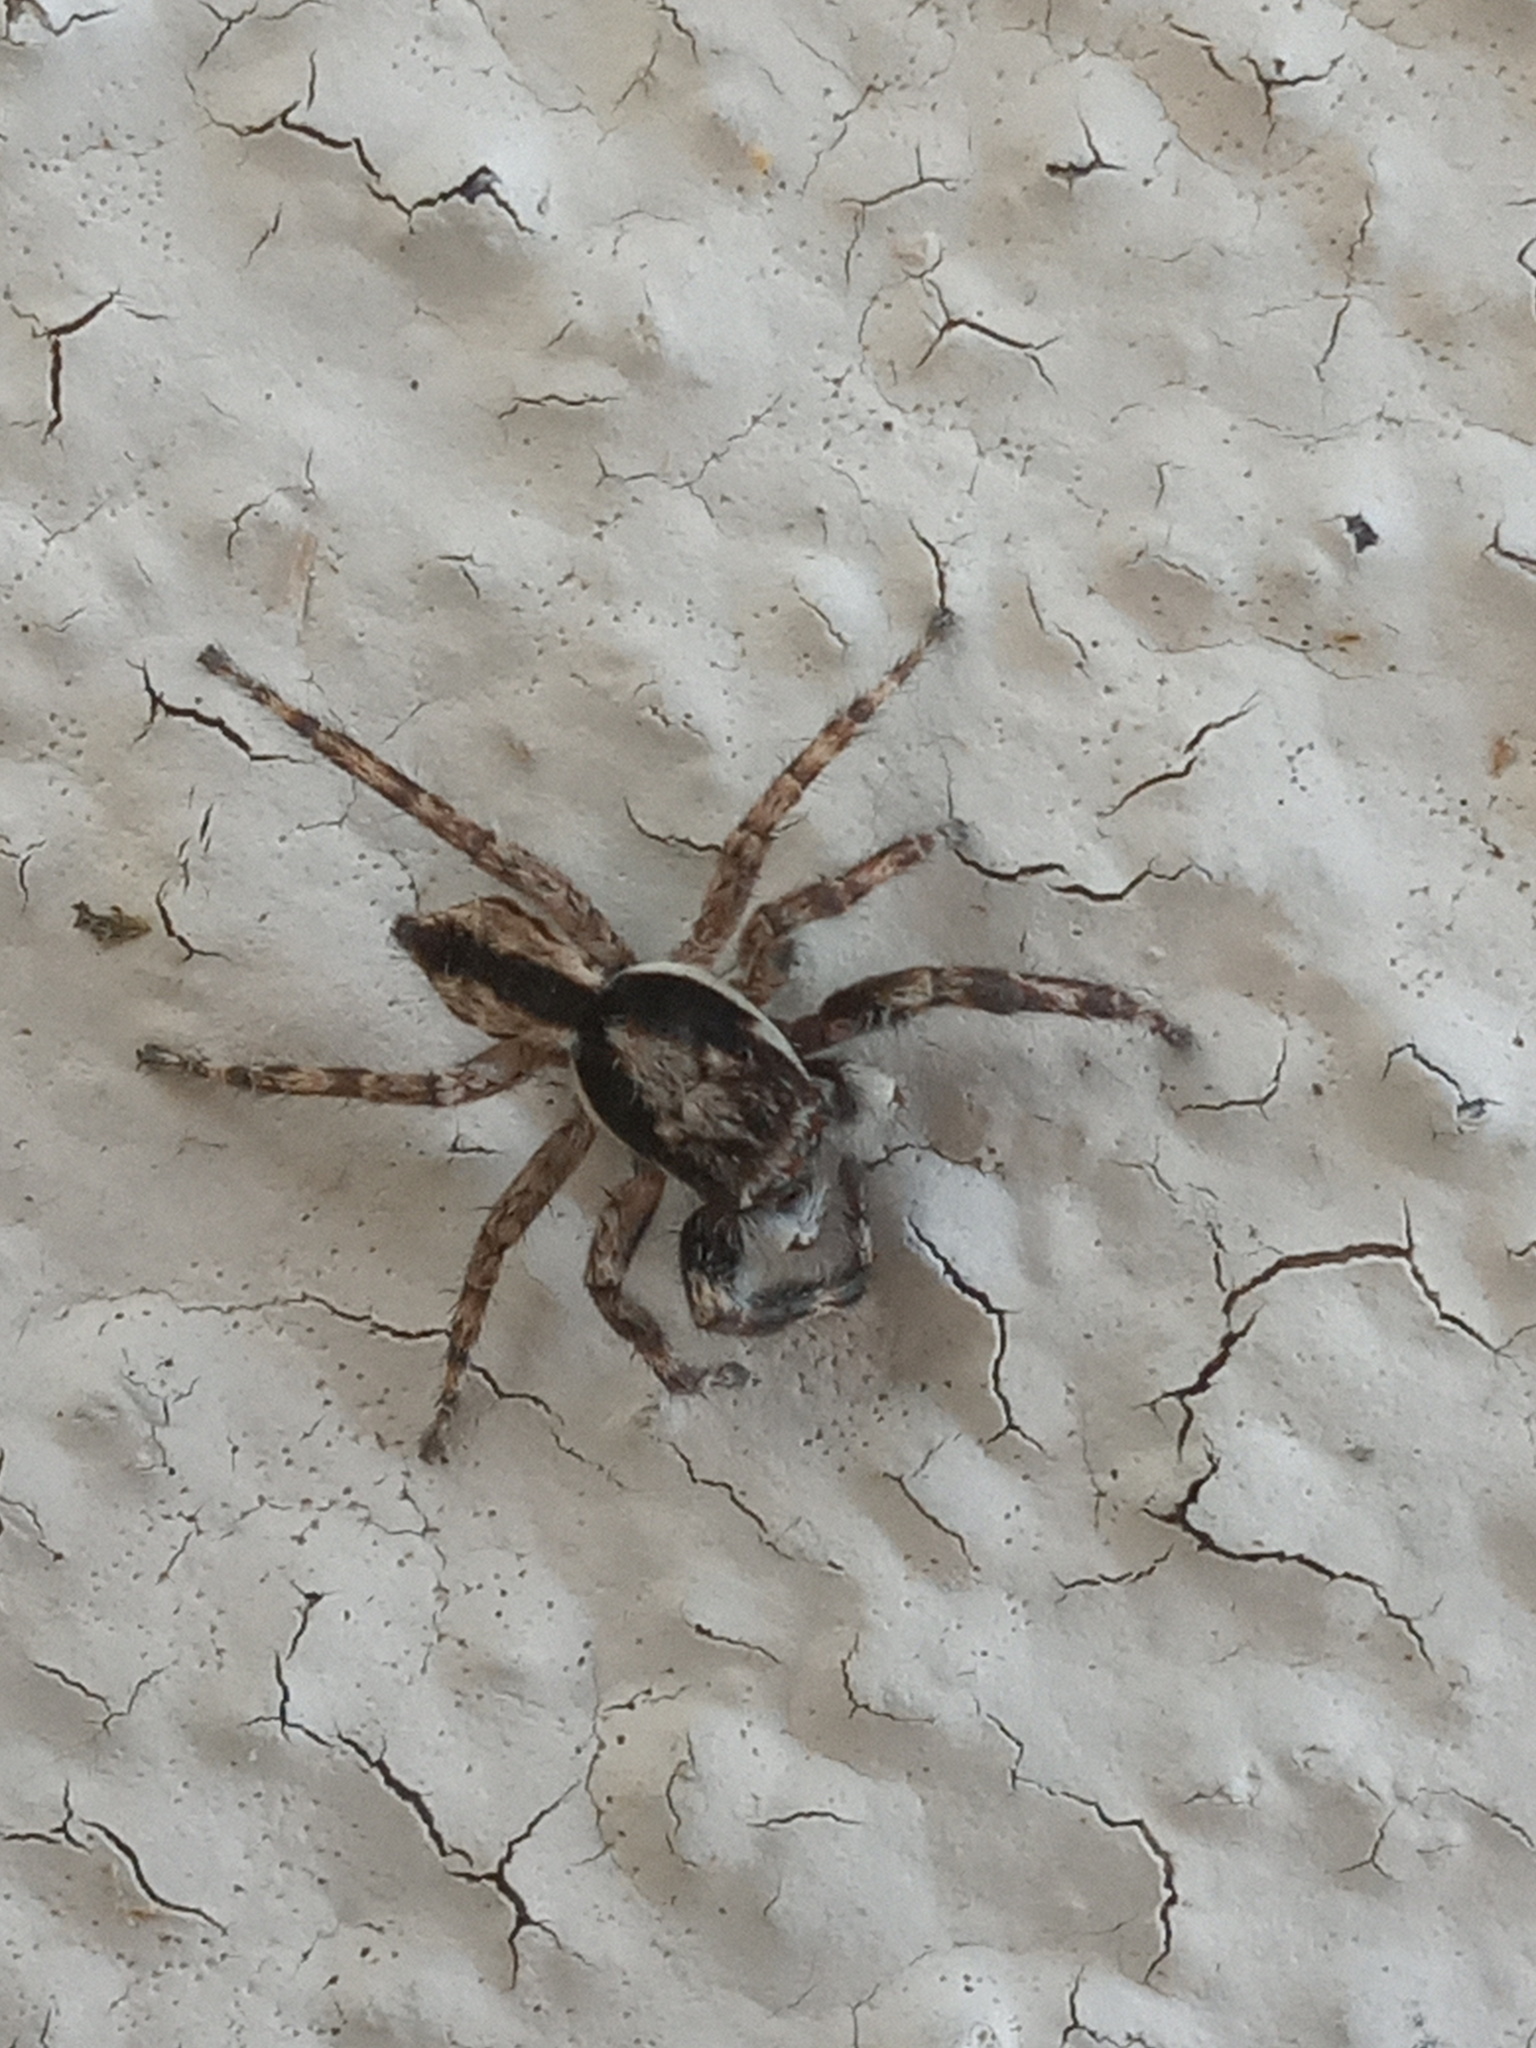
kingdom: Animalia
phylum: Arthropoda
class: Arachnida
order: Araneae
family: Salticidae
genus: Menemerus
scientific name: Menemerus bivittatus
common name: Gray wall jumper
